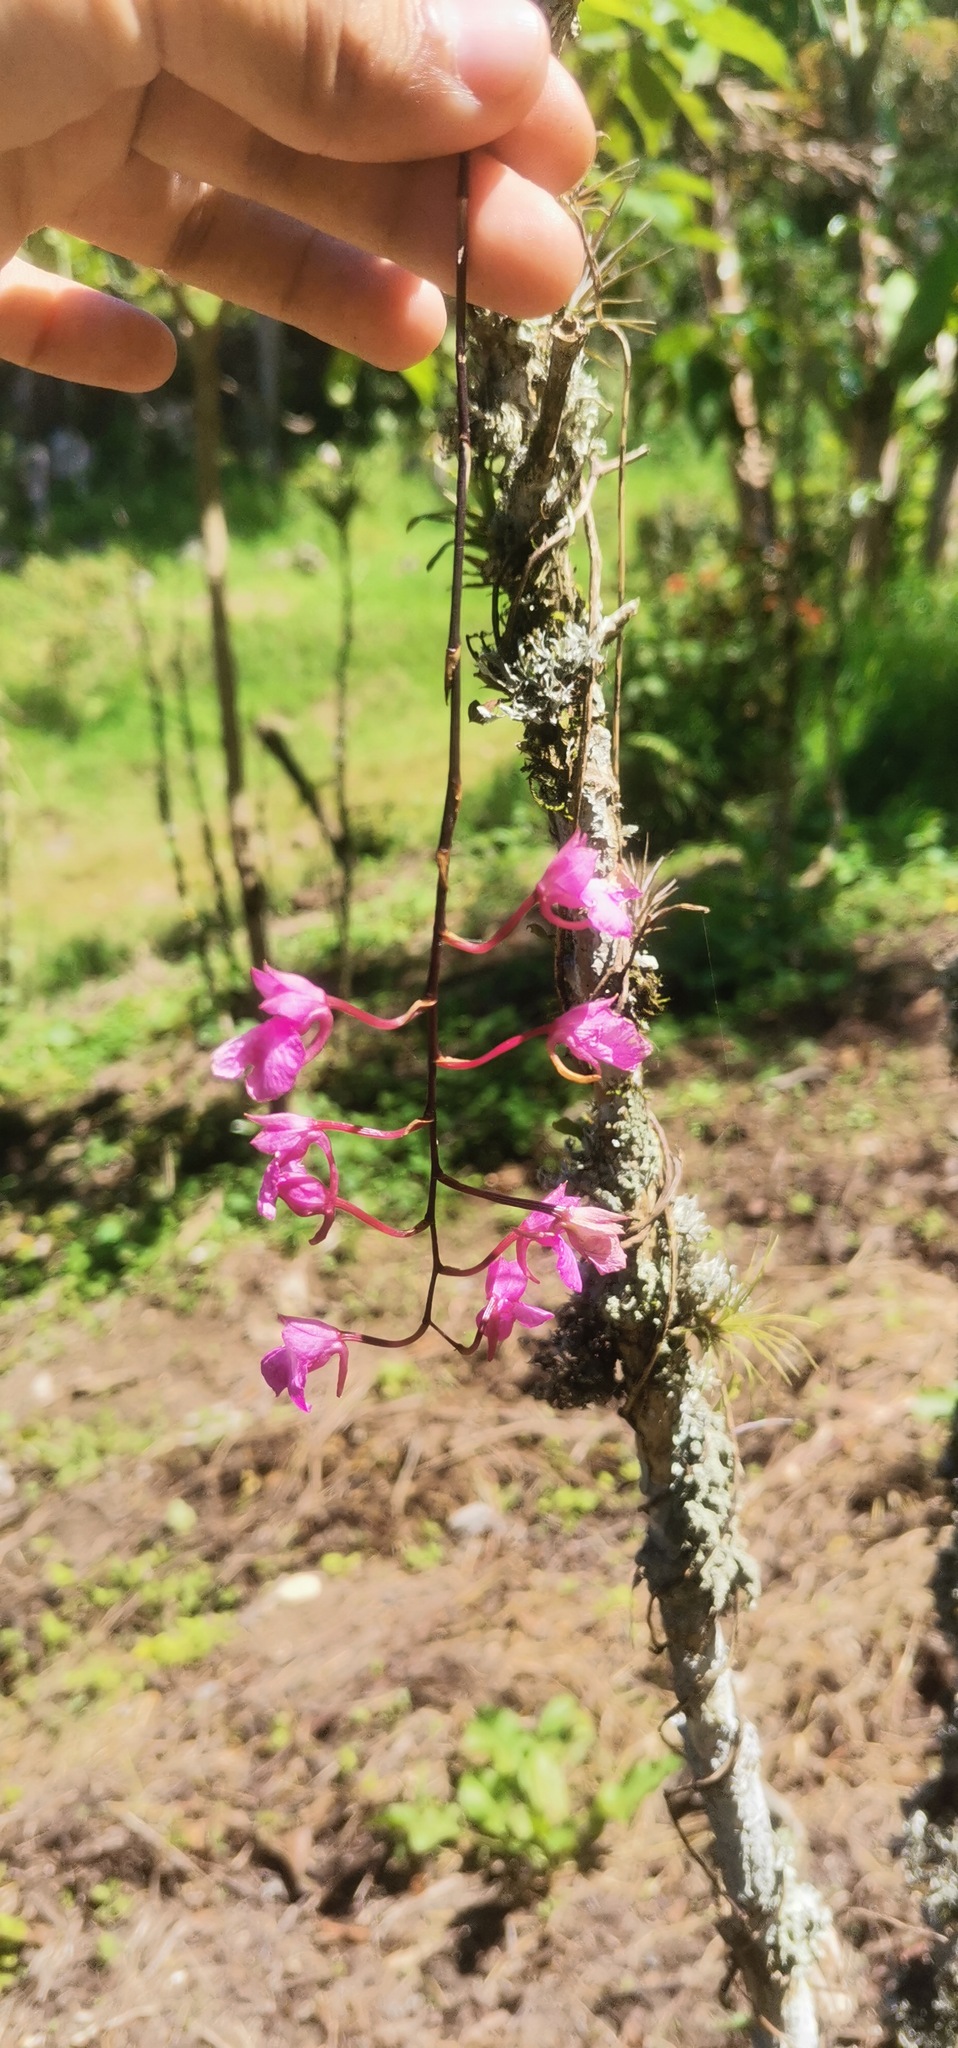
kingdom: Plantae
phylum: Tracheophyta
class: Liliopsida
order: Asparagales
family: Orchidaceae
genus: Comparettia
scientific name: Comparettia falcata
